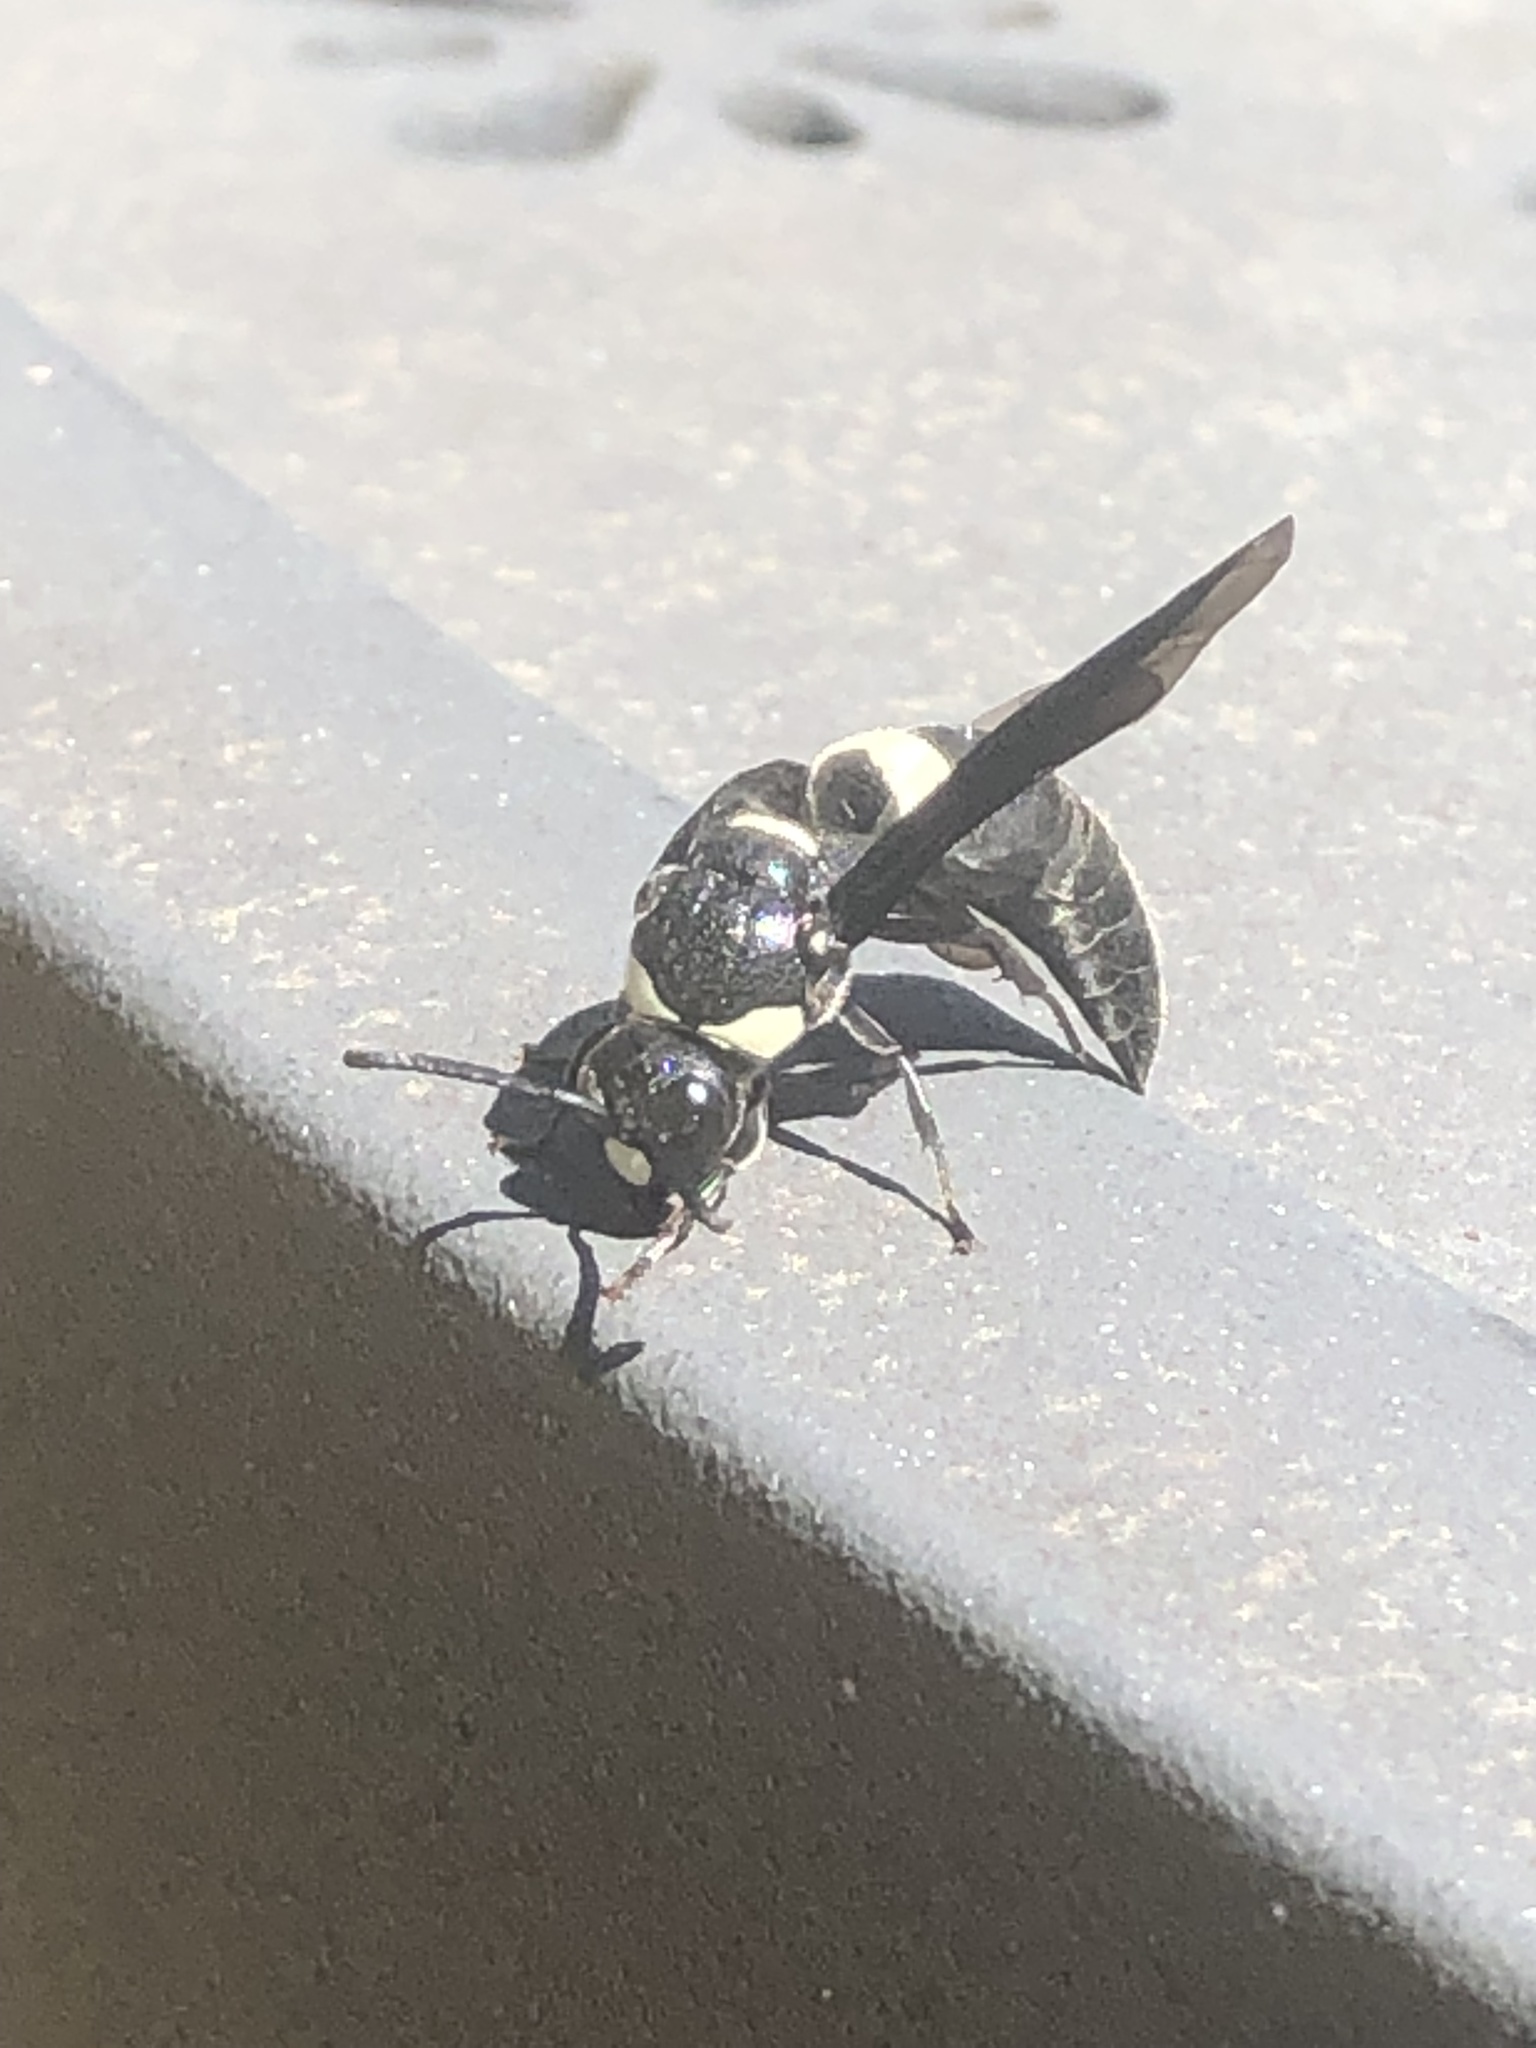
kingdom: Animalia
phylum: Arthropoda
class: Insecta
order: Hymenoptera
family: Eumenidae
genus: Monobia
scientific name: Monobia quadridens
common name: Four-toothed mason wasp
